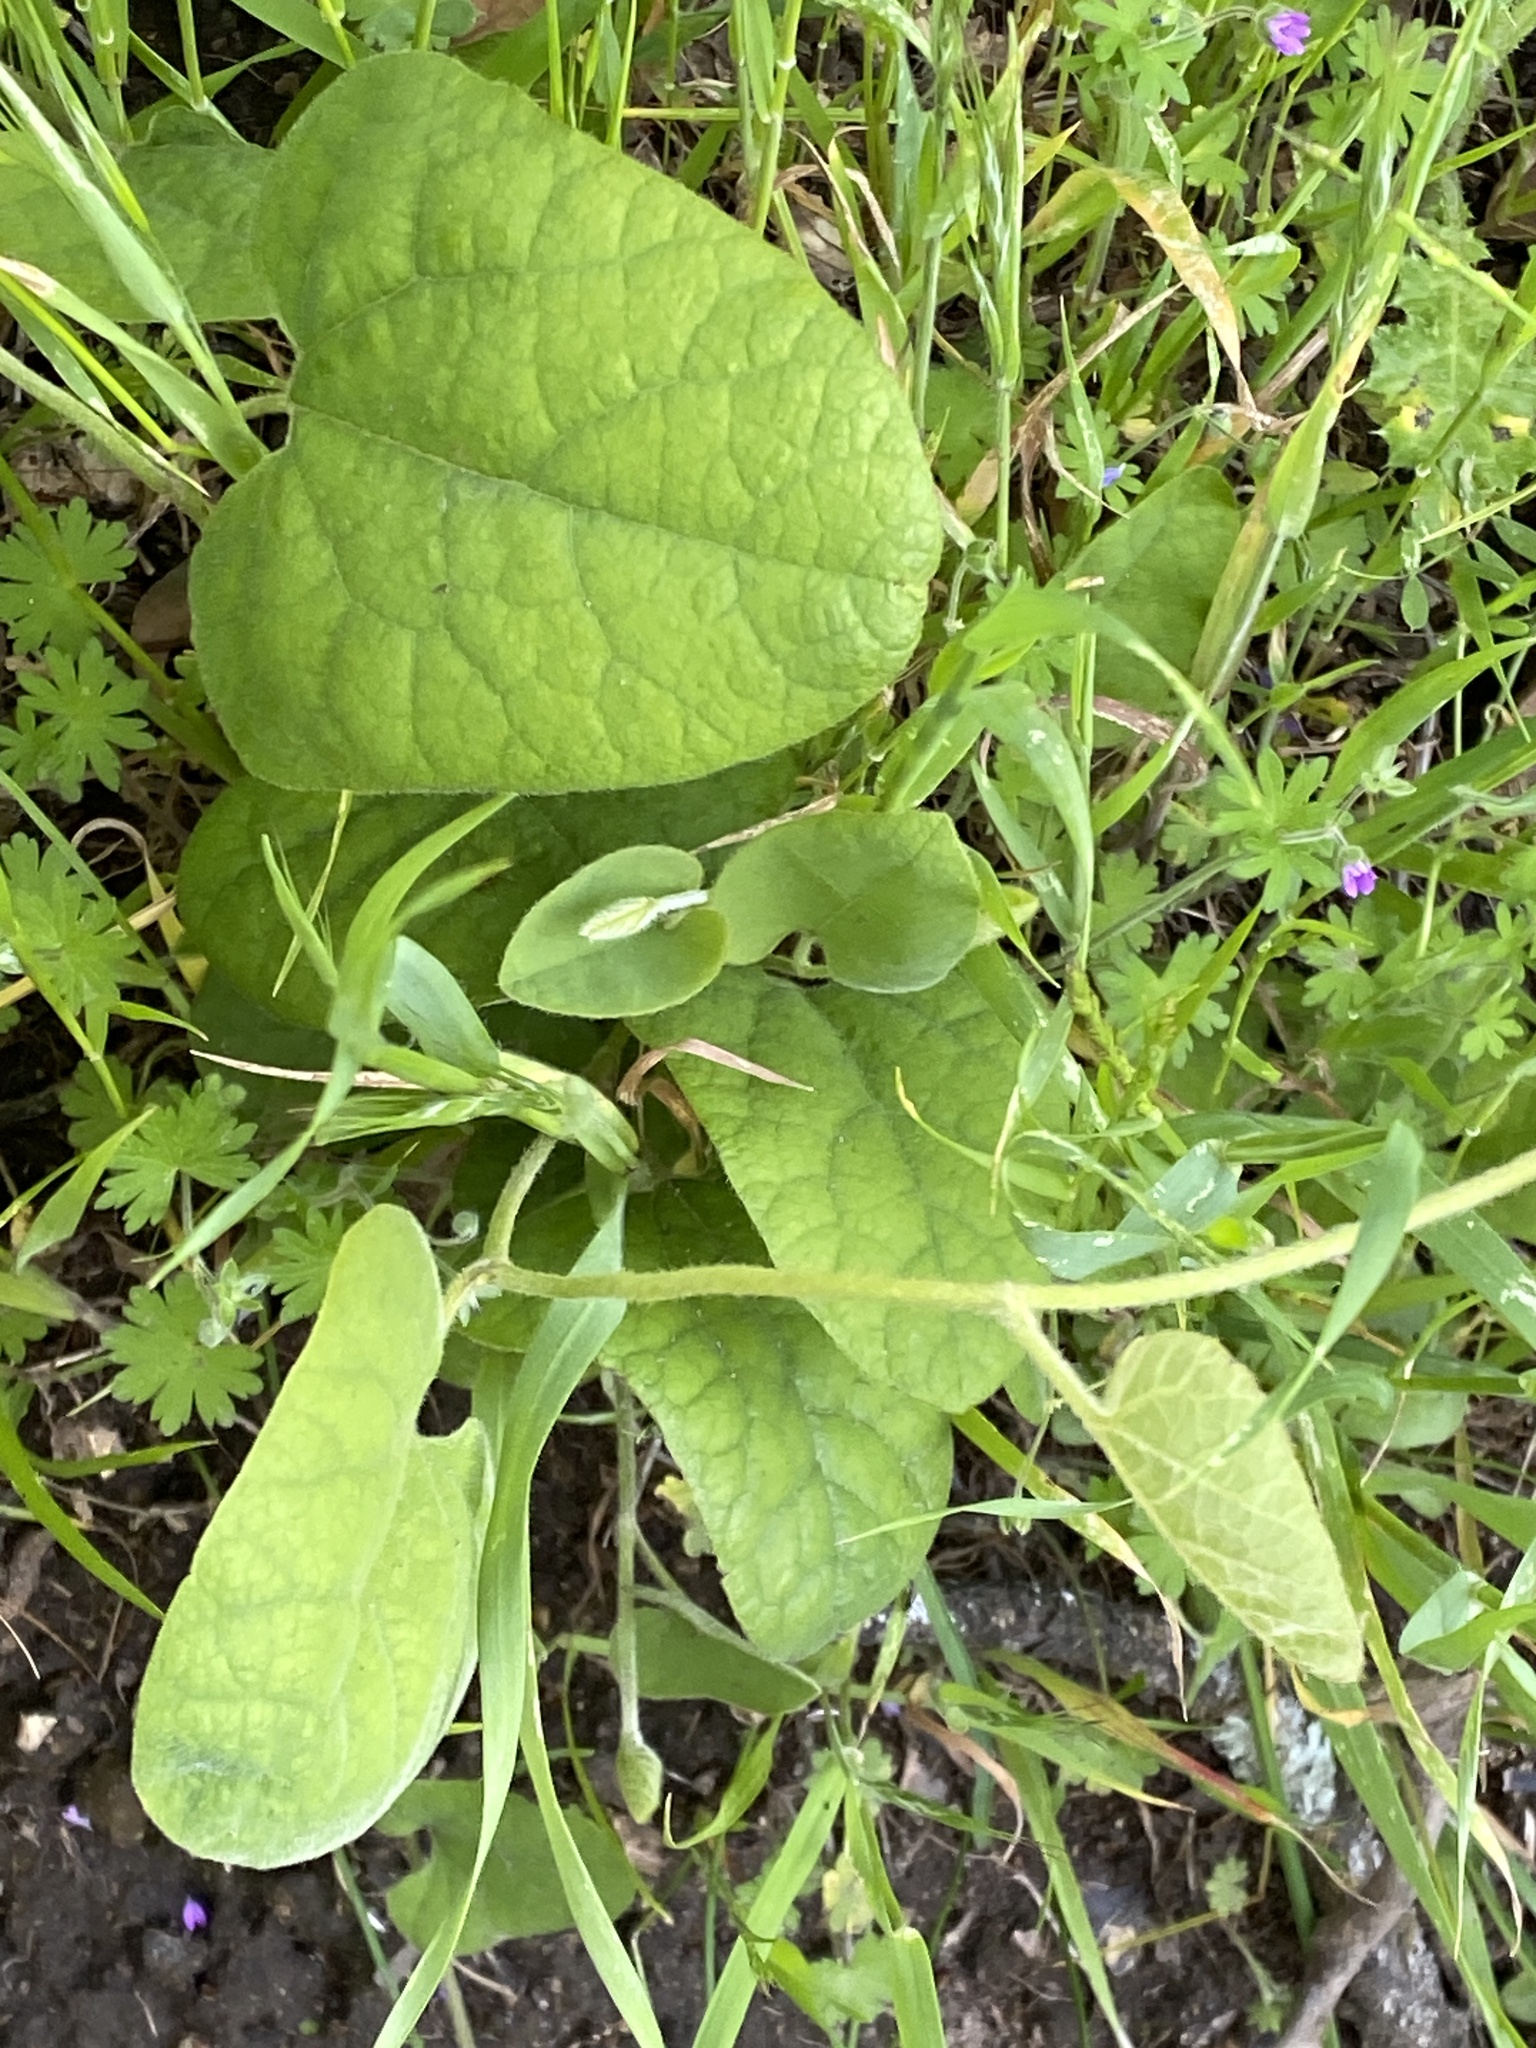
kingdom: Plantae
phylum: Tracheophyta
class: Magnoliopsida
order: Piperales
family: Aristolochiaceae
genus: Isotrema
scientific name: Isotrema californicum
